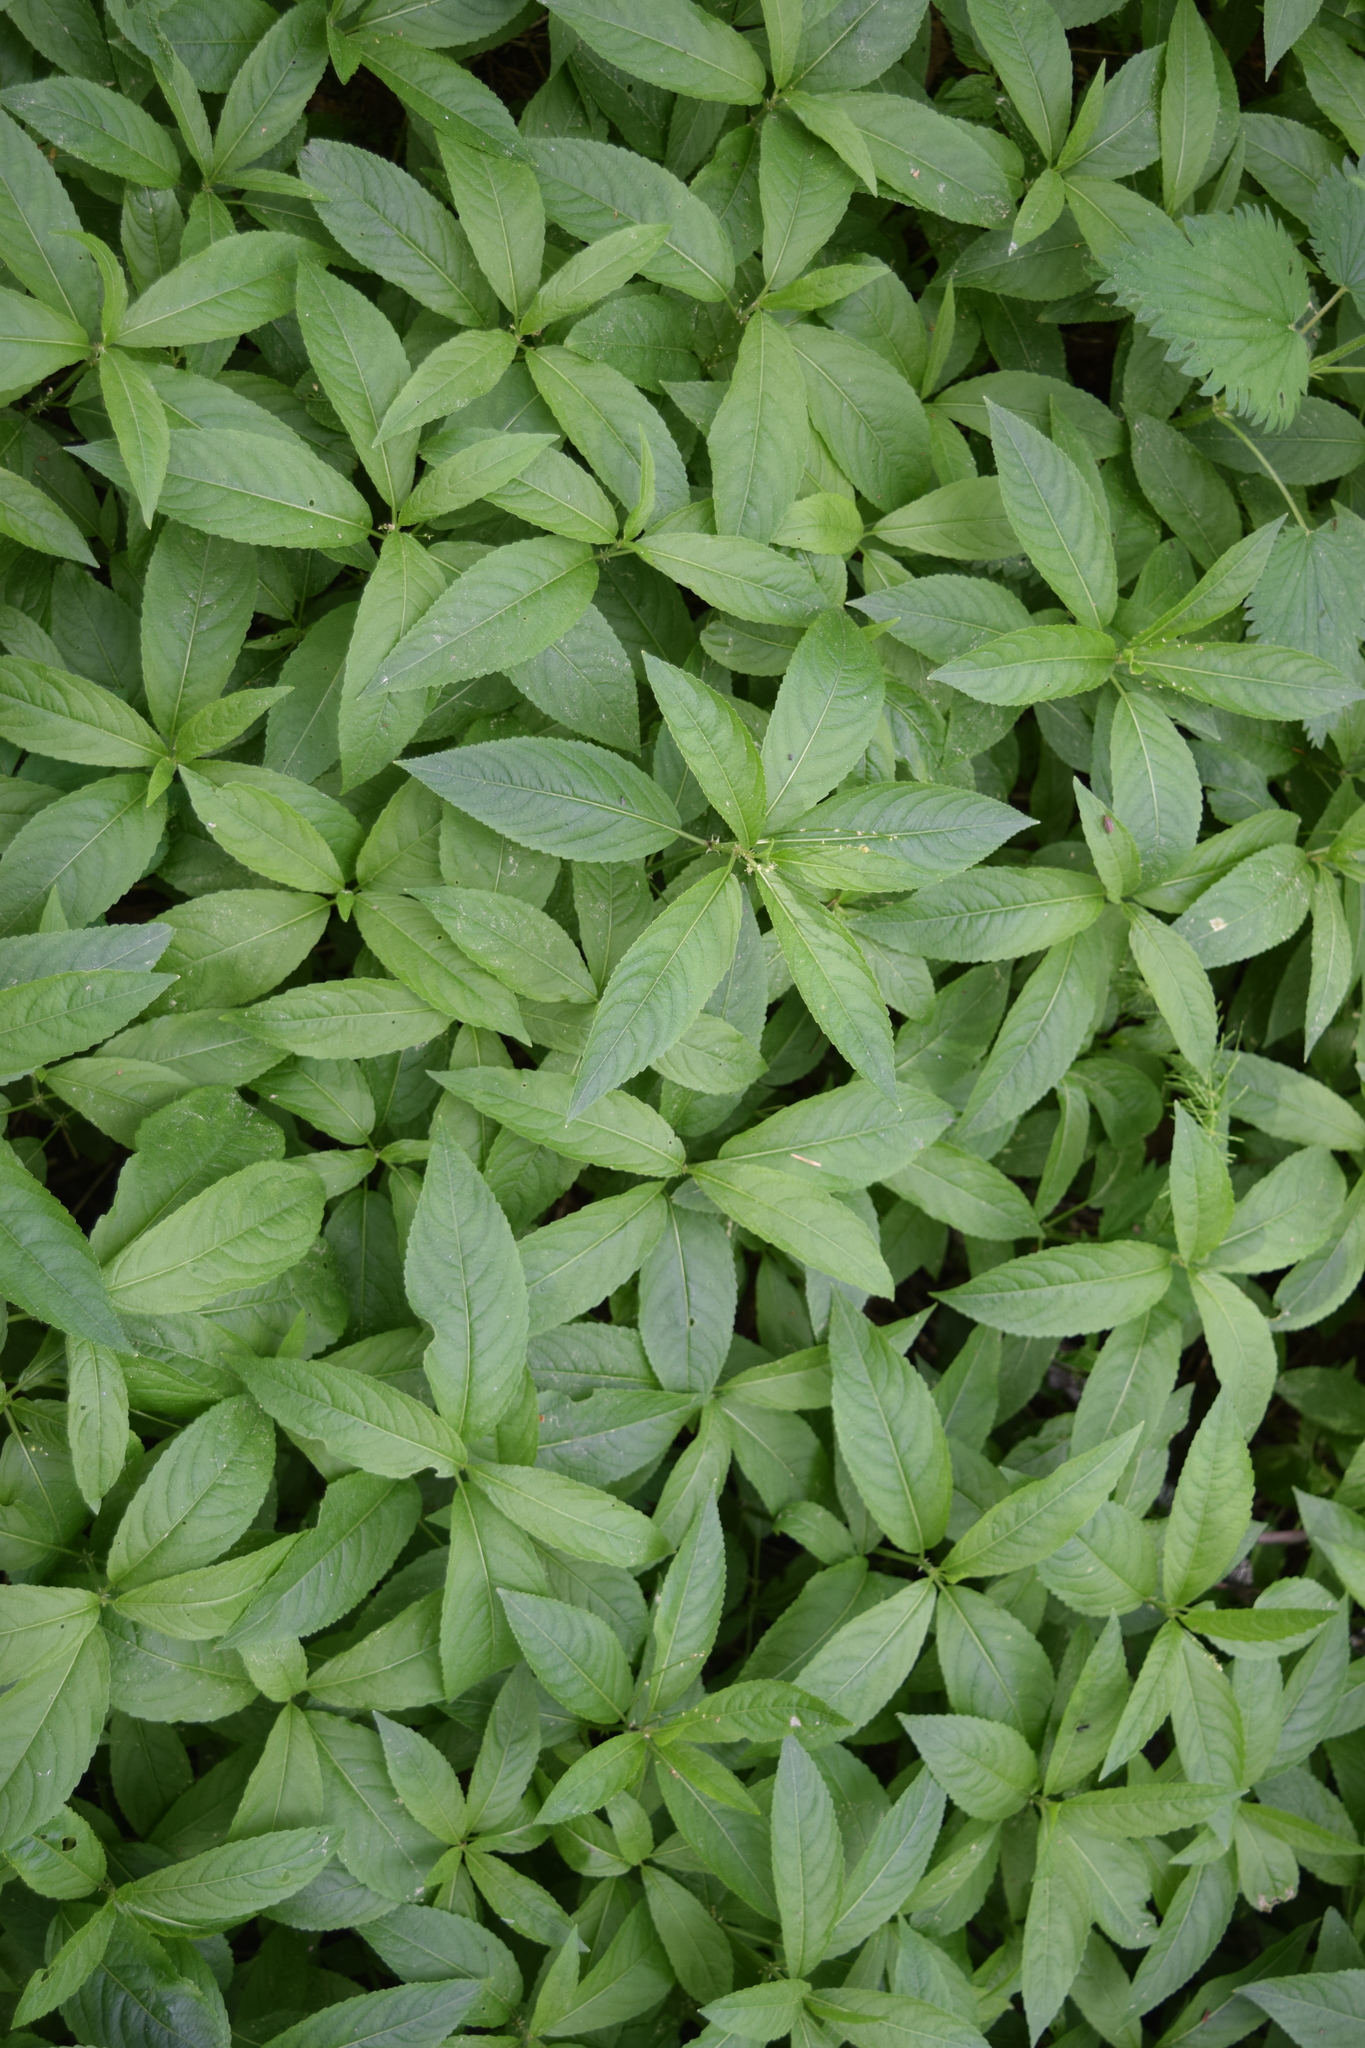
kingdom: Plantae
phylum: Tracheophyta
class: Magnoliopsida
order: Malpighiales
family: Euphorbiaceae
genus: Mercurialis
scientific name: Mercurialis perennis
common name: Dog mercury
